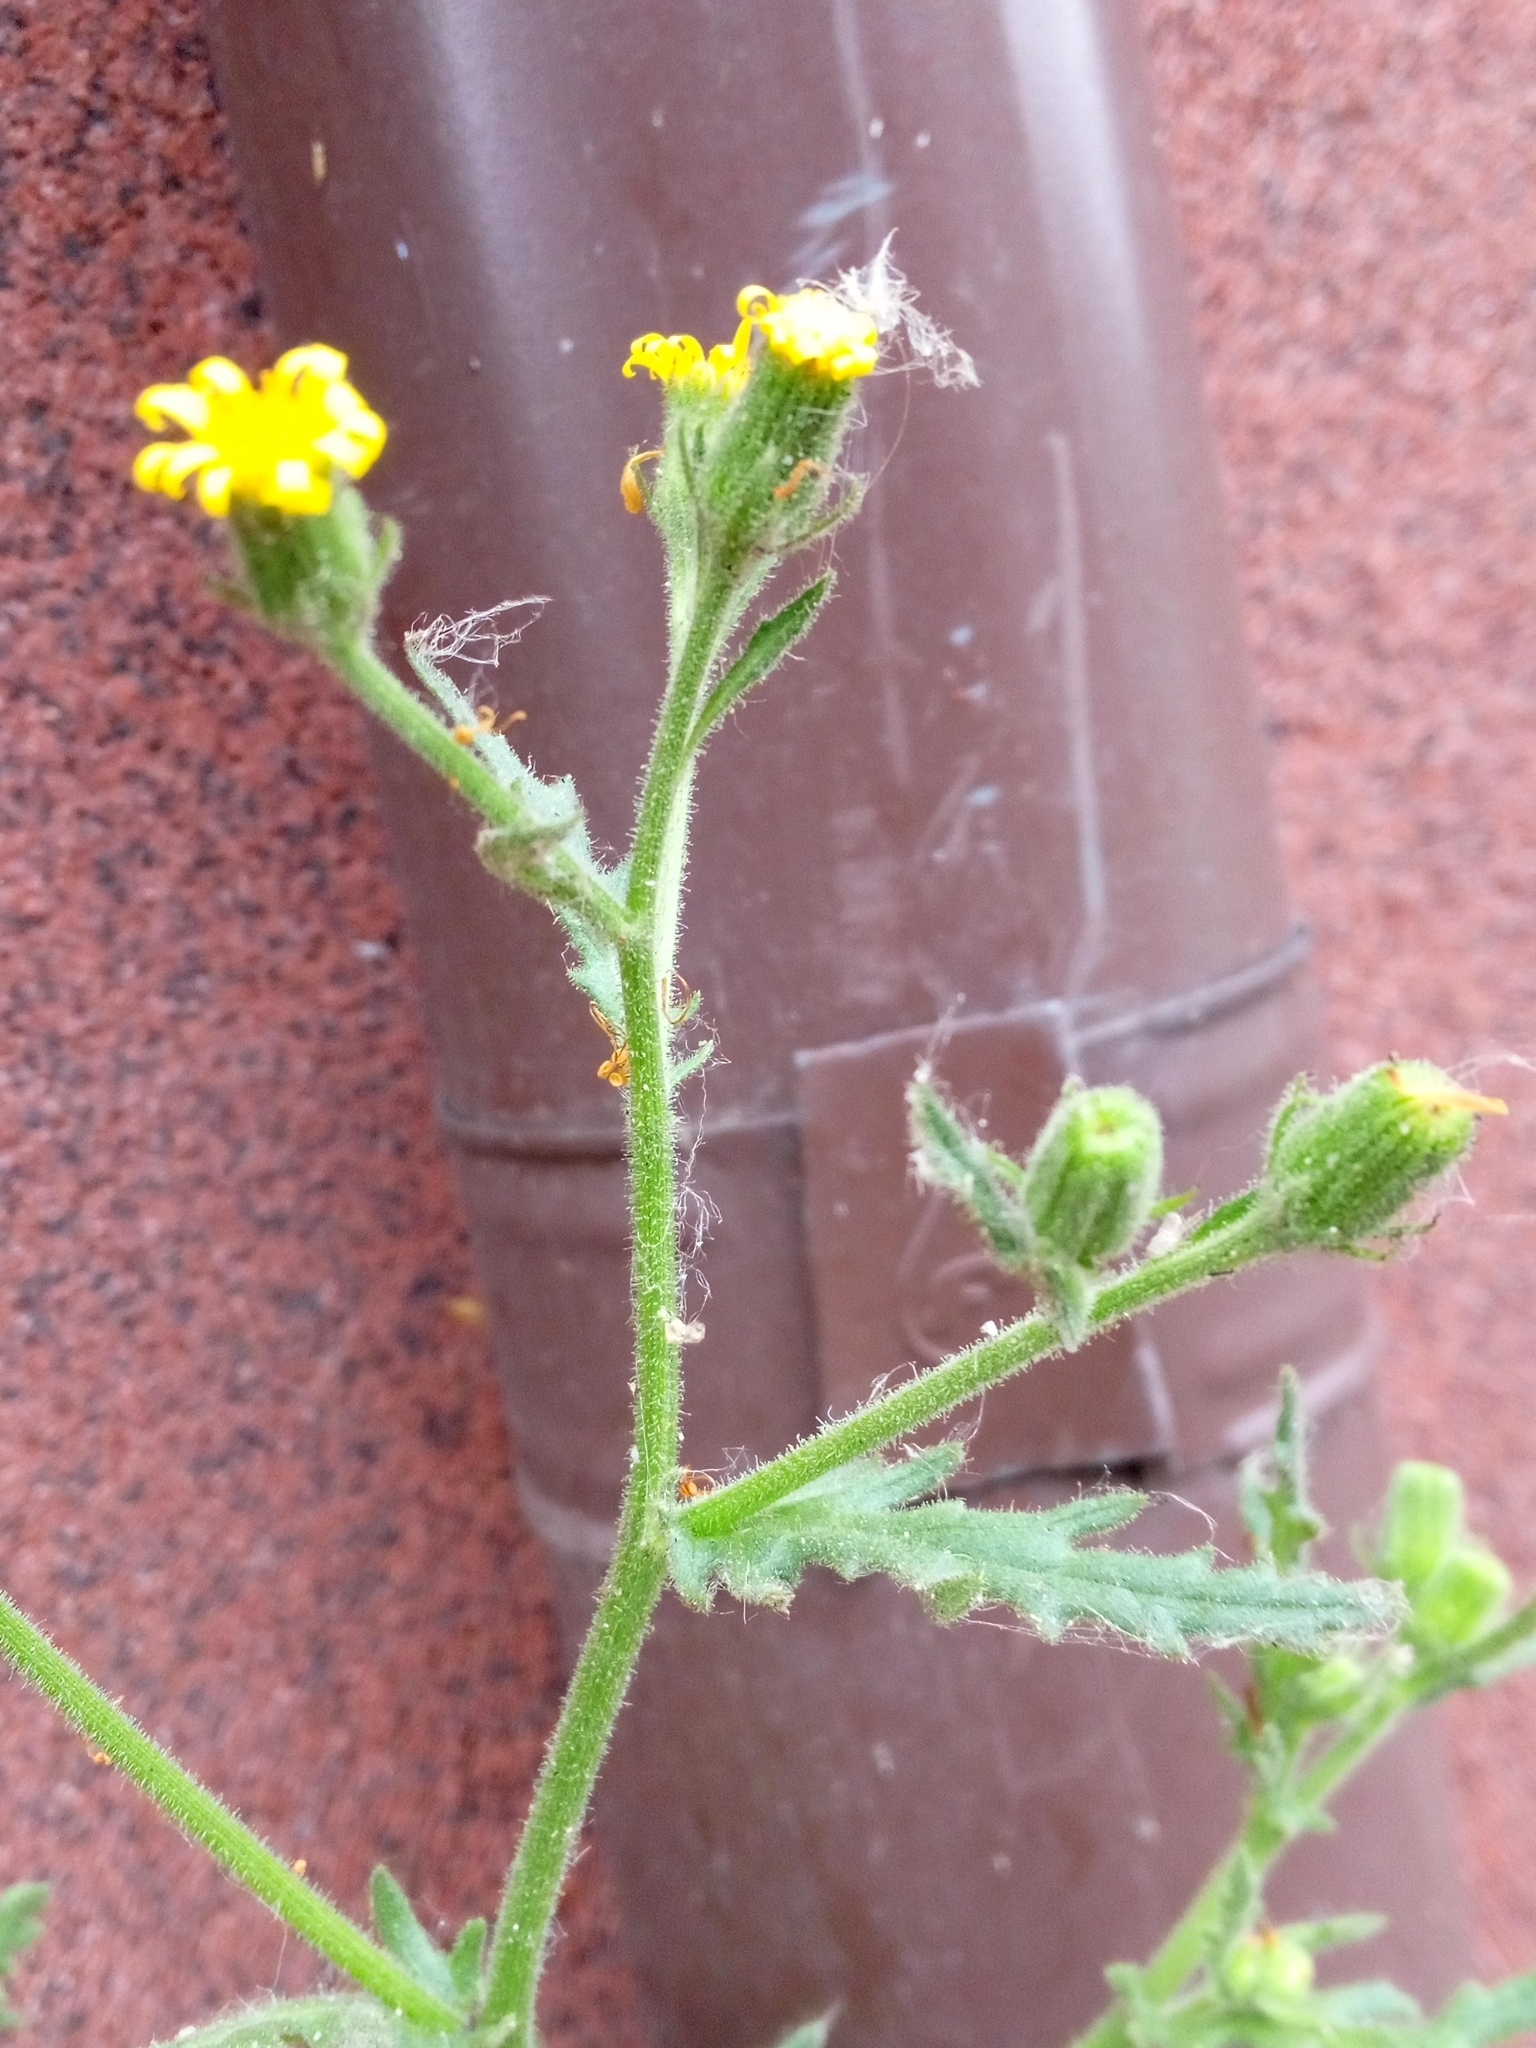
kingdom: Plantae
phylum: Tracheophyta
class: Magnoliopsida
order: Asterales
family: Asteraceae
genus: Senecio
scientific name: Senecio viscosus
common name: Sticky groundsel
